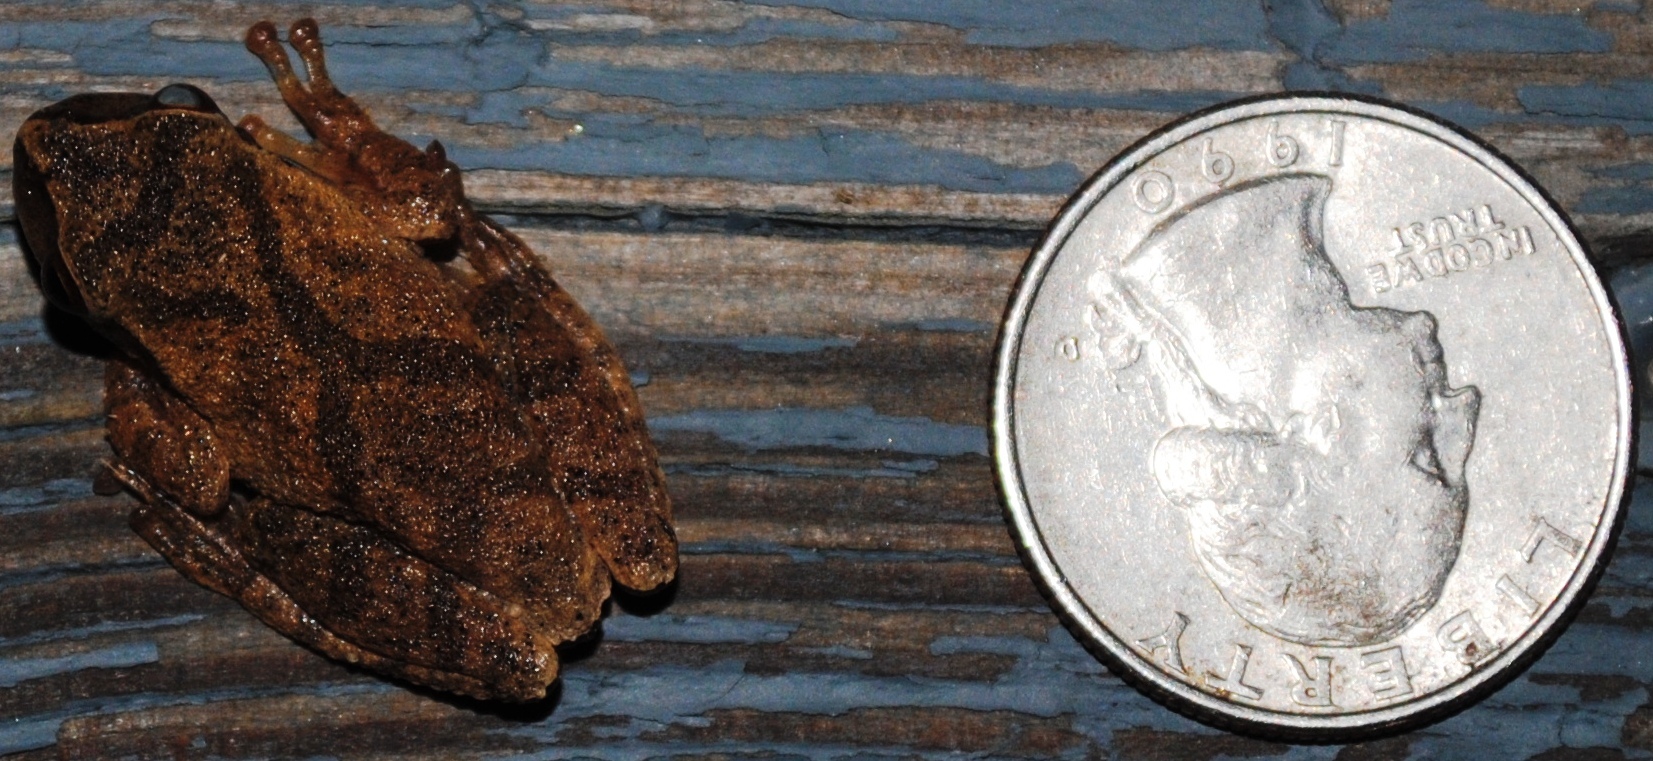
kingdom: Animalia
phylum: Chordata
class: Amphibia
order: Anura
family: Hylidae
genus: Pseudacris
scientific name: Pseudacris crucifer
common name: Spring peeper
